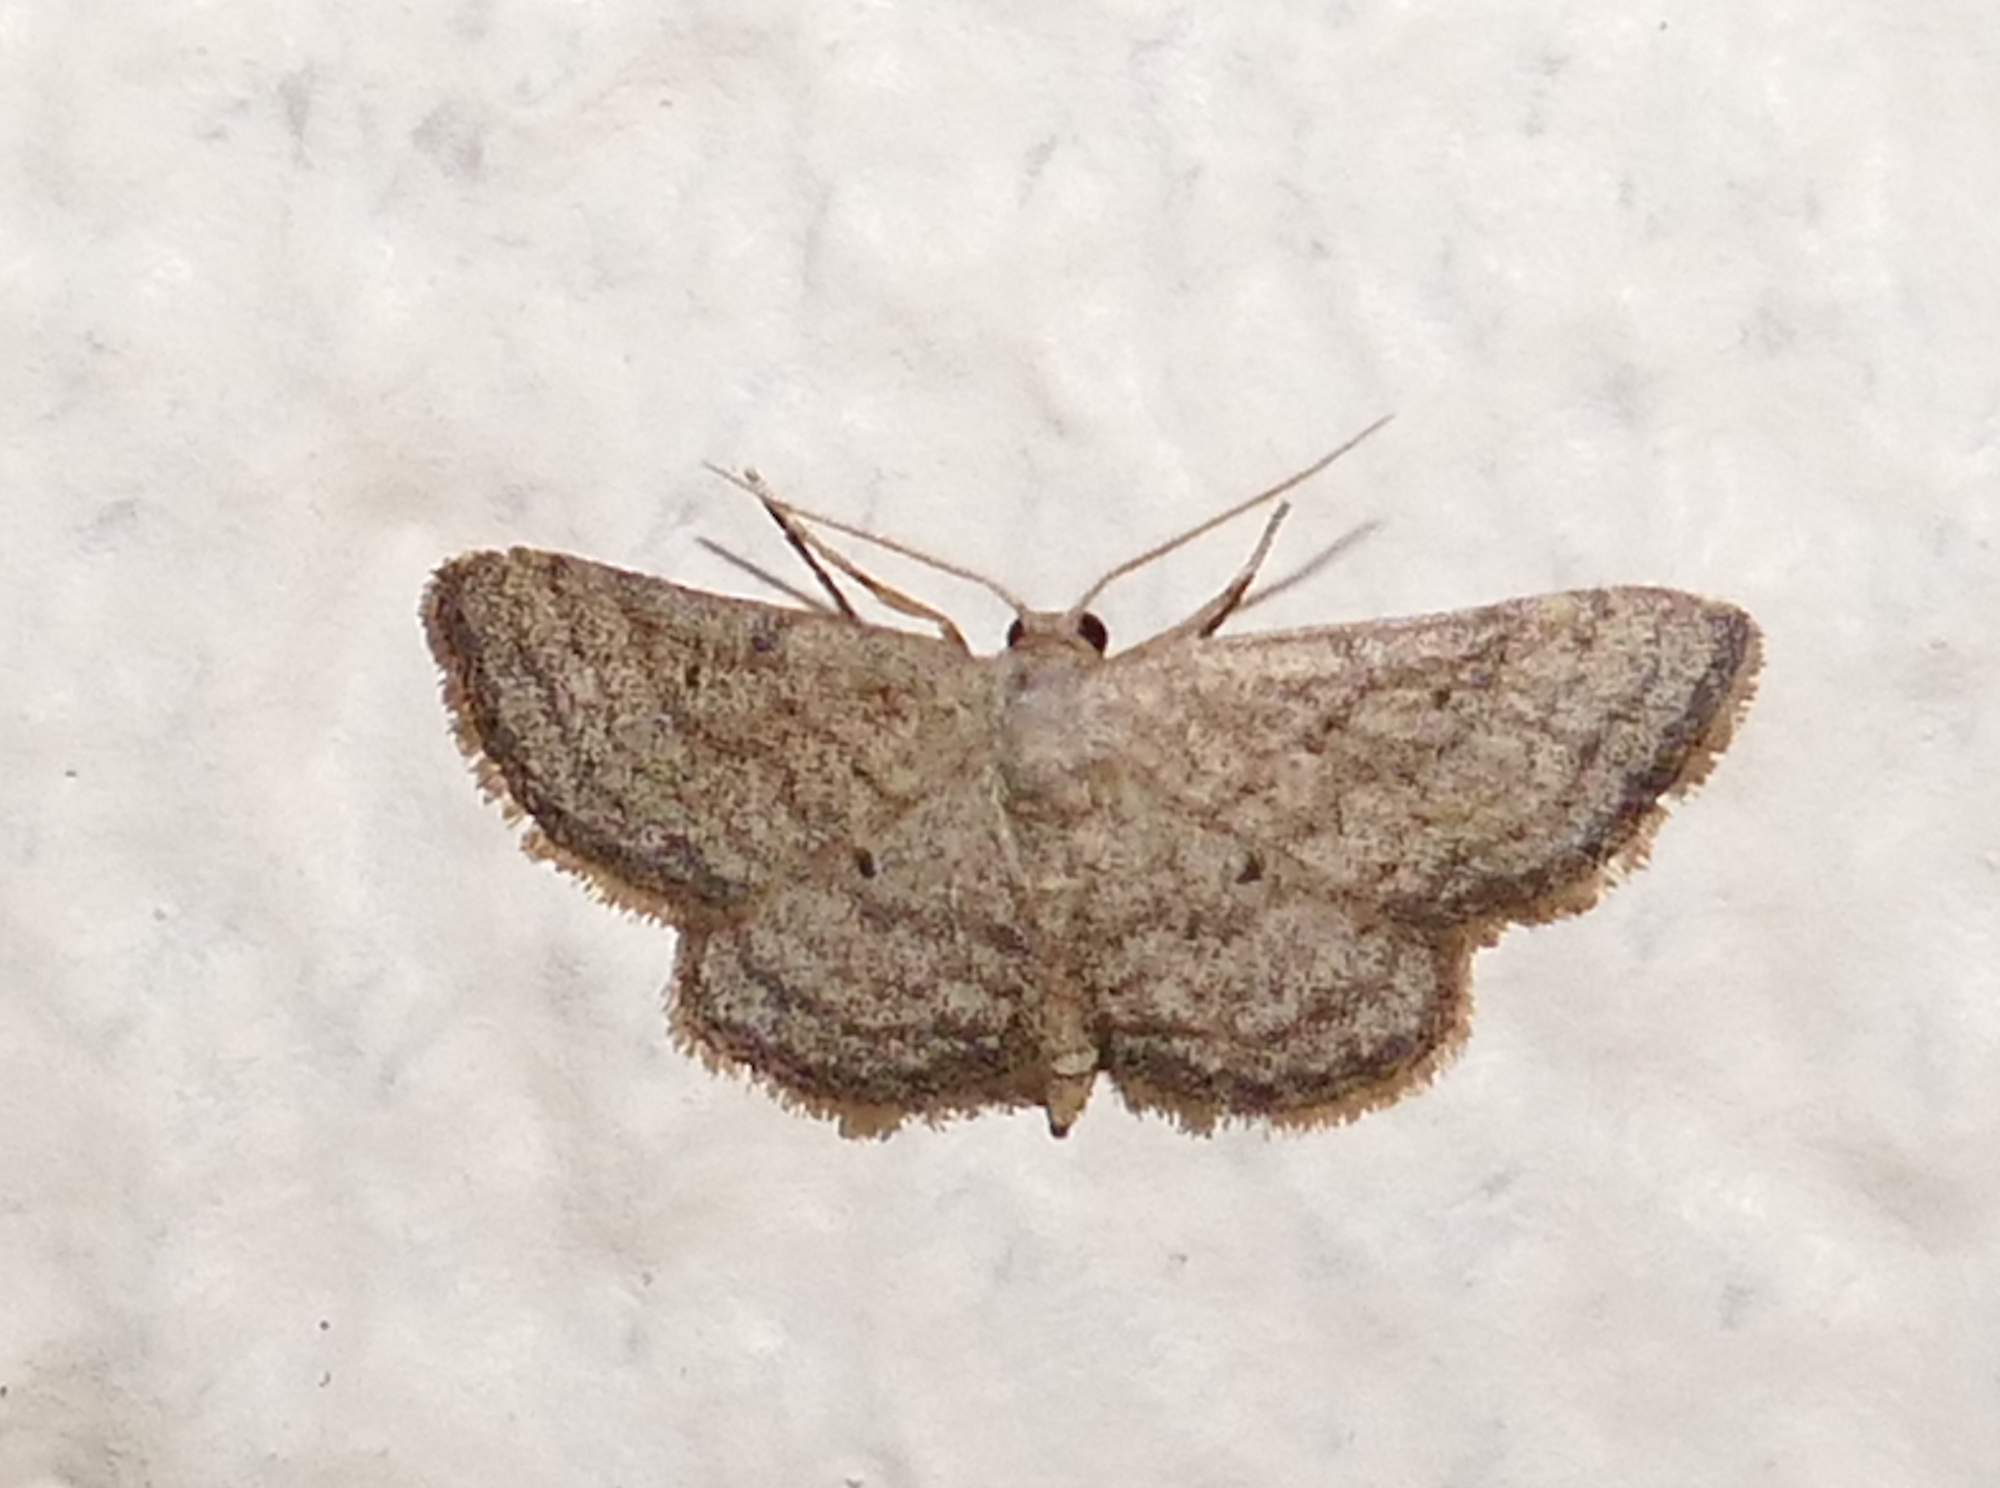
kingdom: Animalia
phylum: Arthropoda
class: Insecta
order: Lepidoptera
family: Geometridae
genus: Lobocleta
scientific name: Lobocleta ossularia
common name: Drab brown wave
